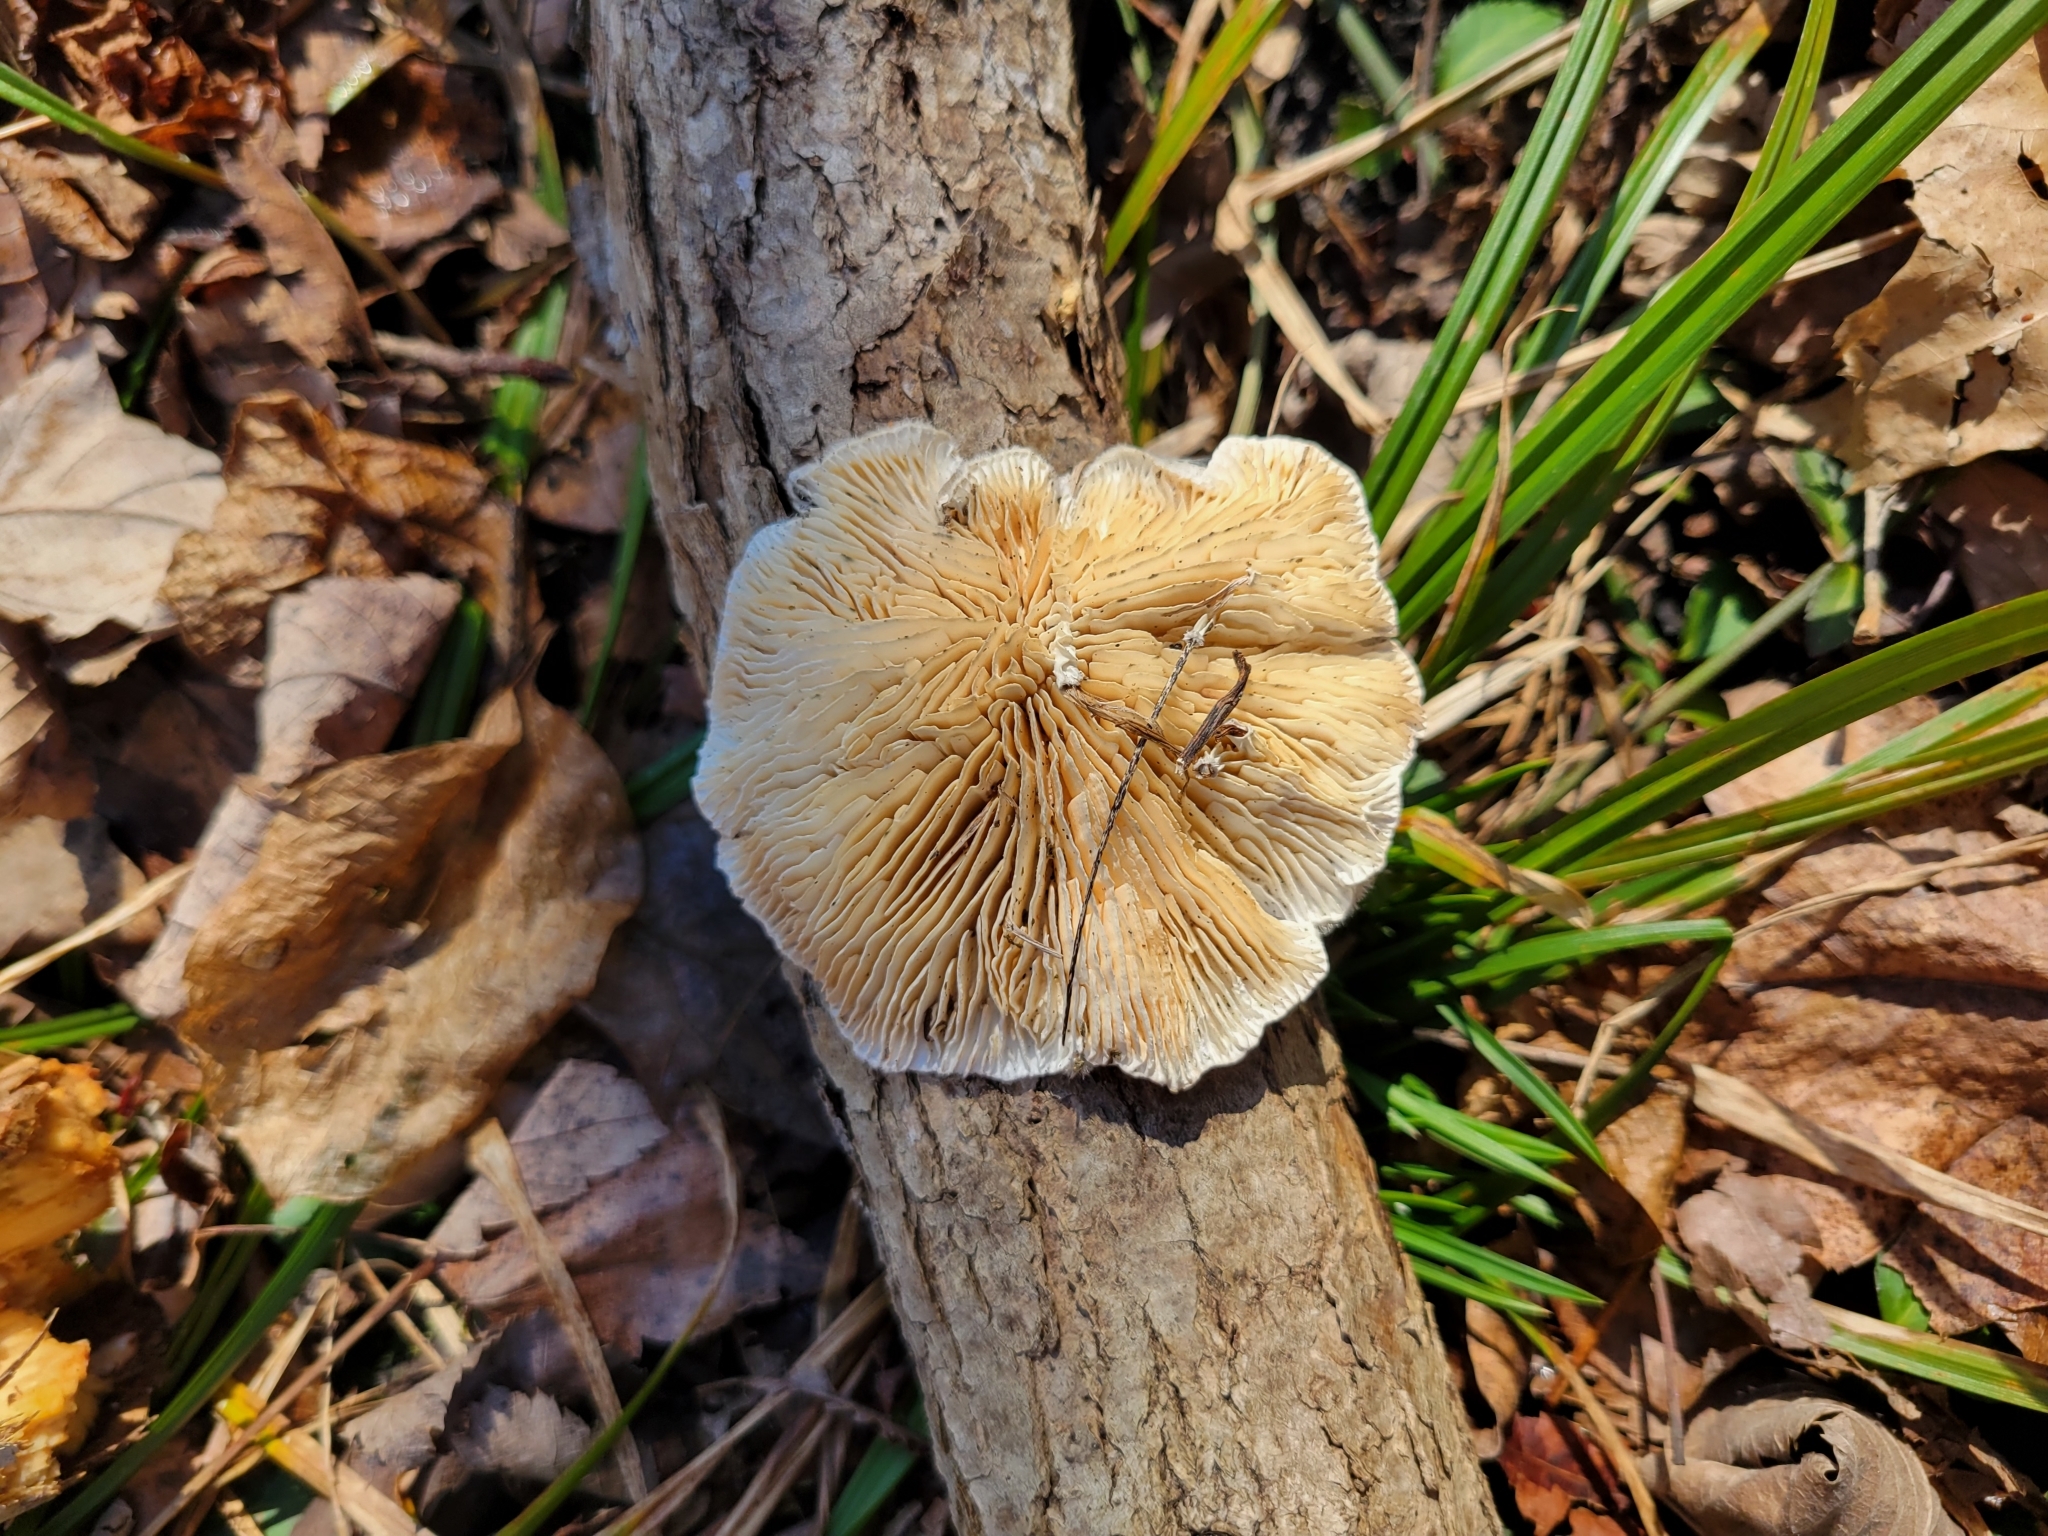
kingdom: Fungi
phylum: Basidiomycota
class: Agaricomycetes
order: Polyporales
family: Polyporaceae
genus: Lenzites
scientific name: Lenzites betulinus
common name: Birch mazegill
